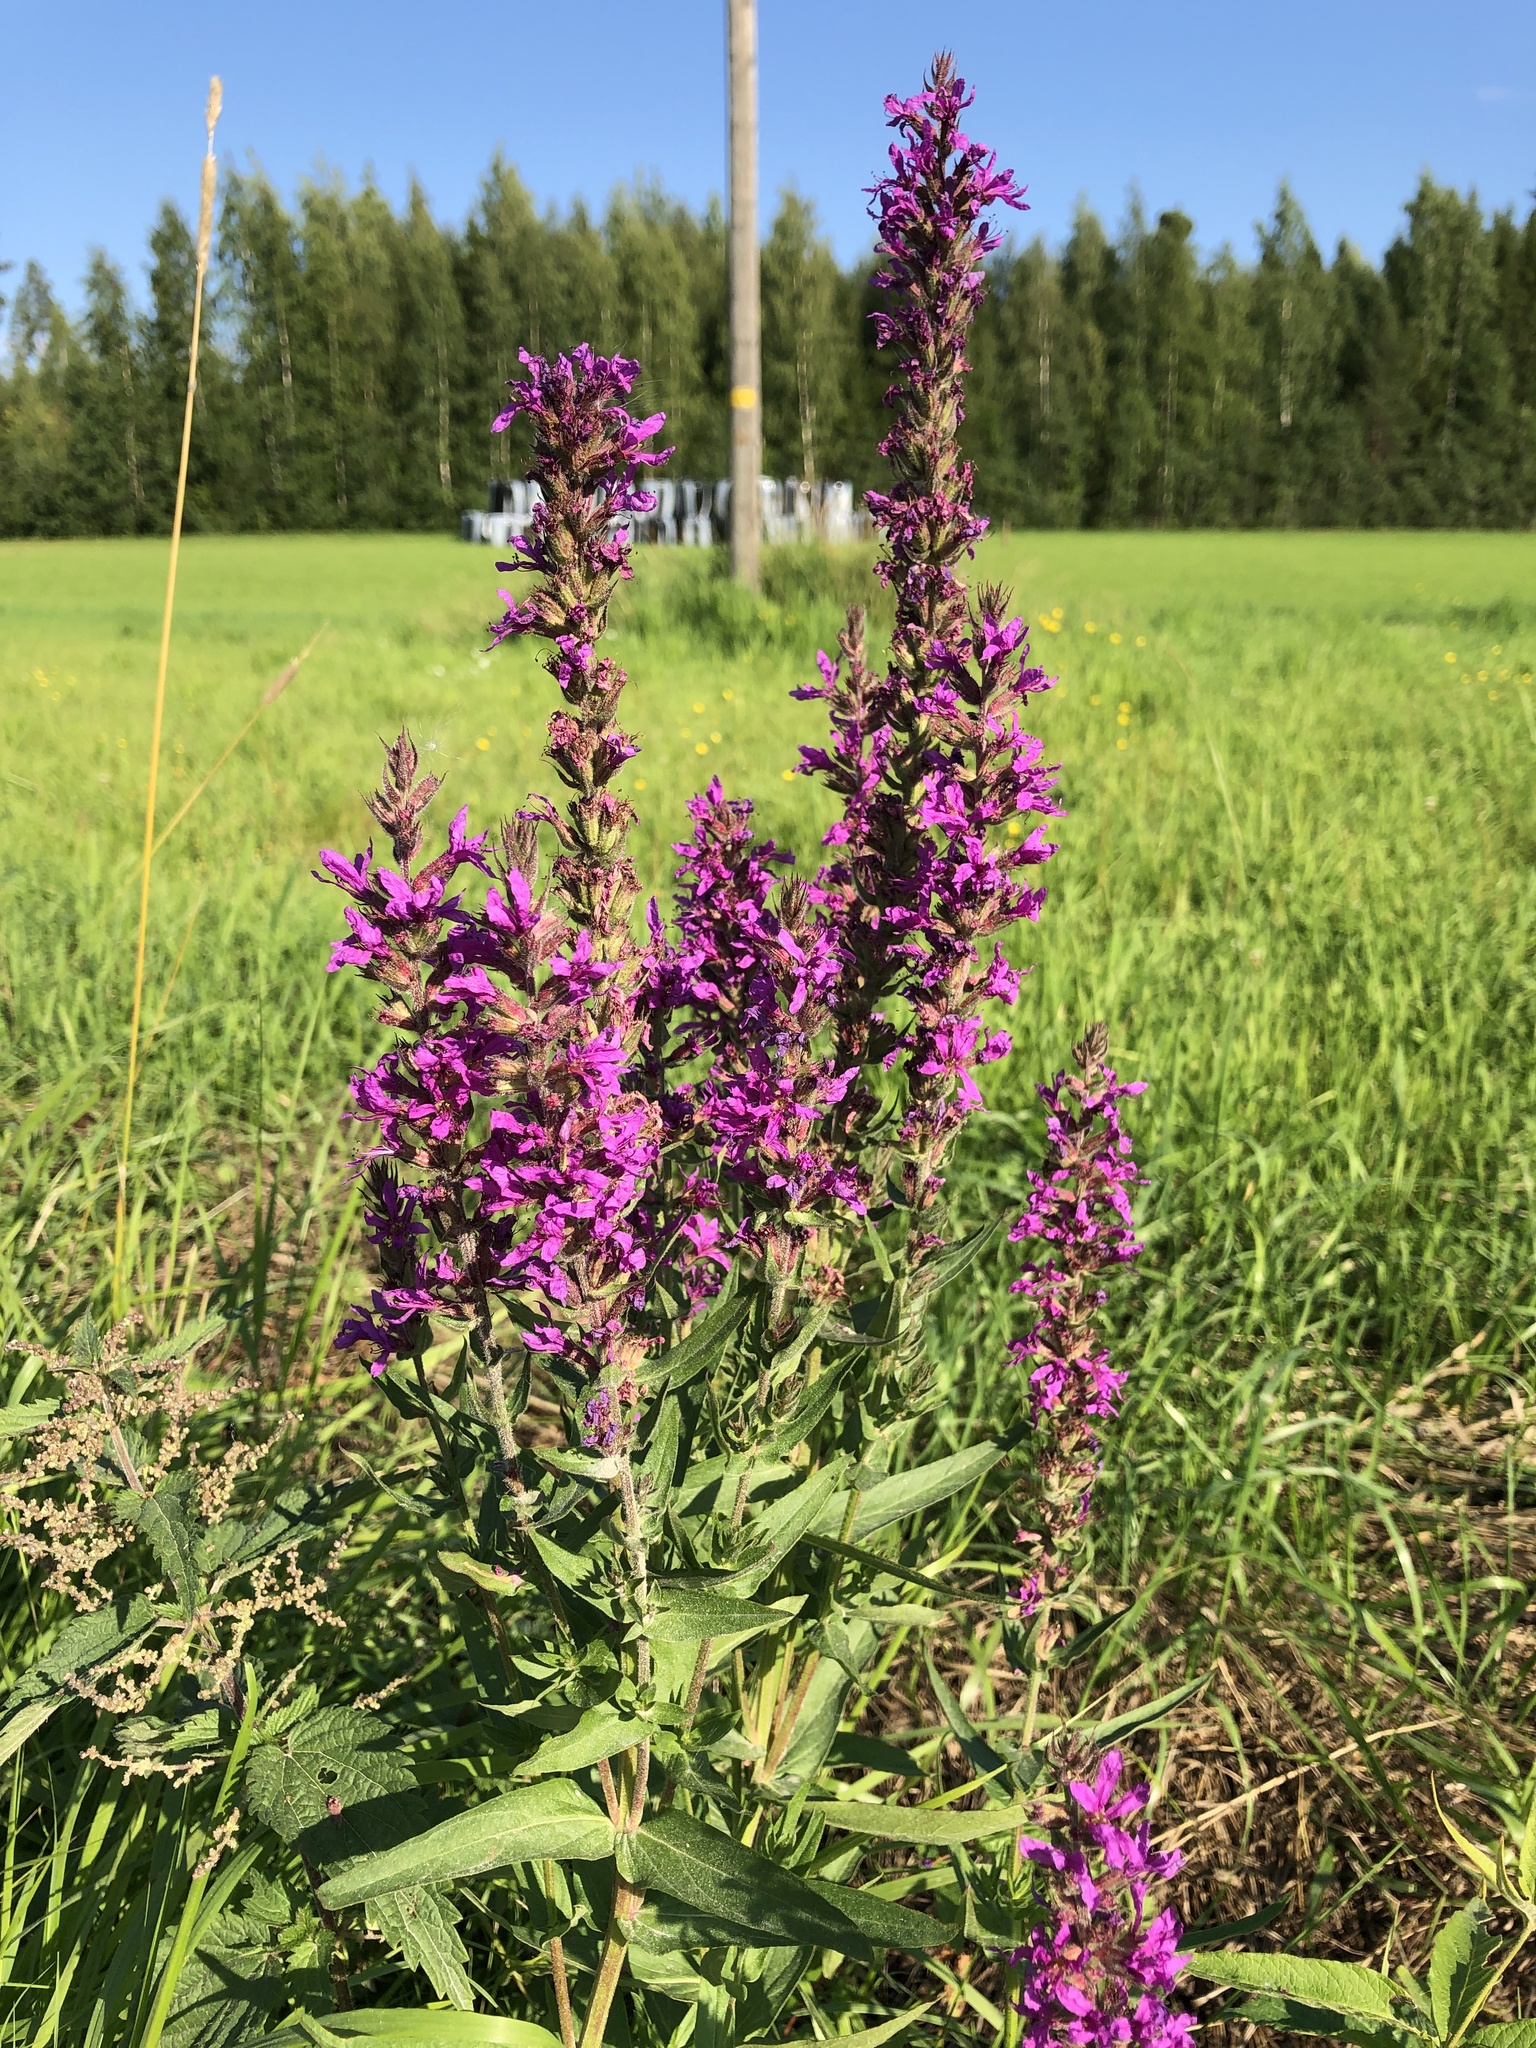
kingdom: Plantae
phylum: Tracheophyta
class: Magnoliopsida
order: Myrtales
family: Lythraceae
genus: Lythrum
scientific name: Lythrum salicaria
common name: Purple loosestrife
